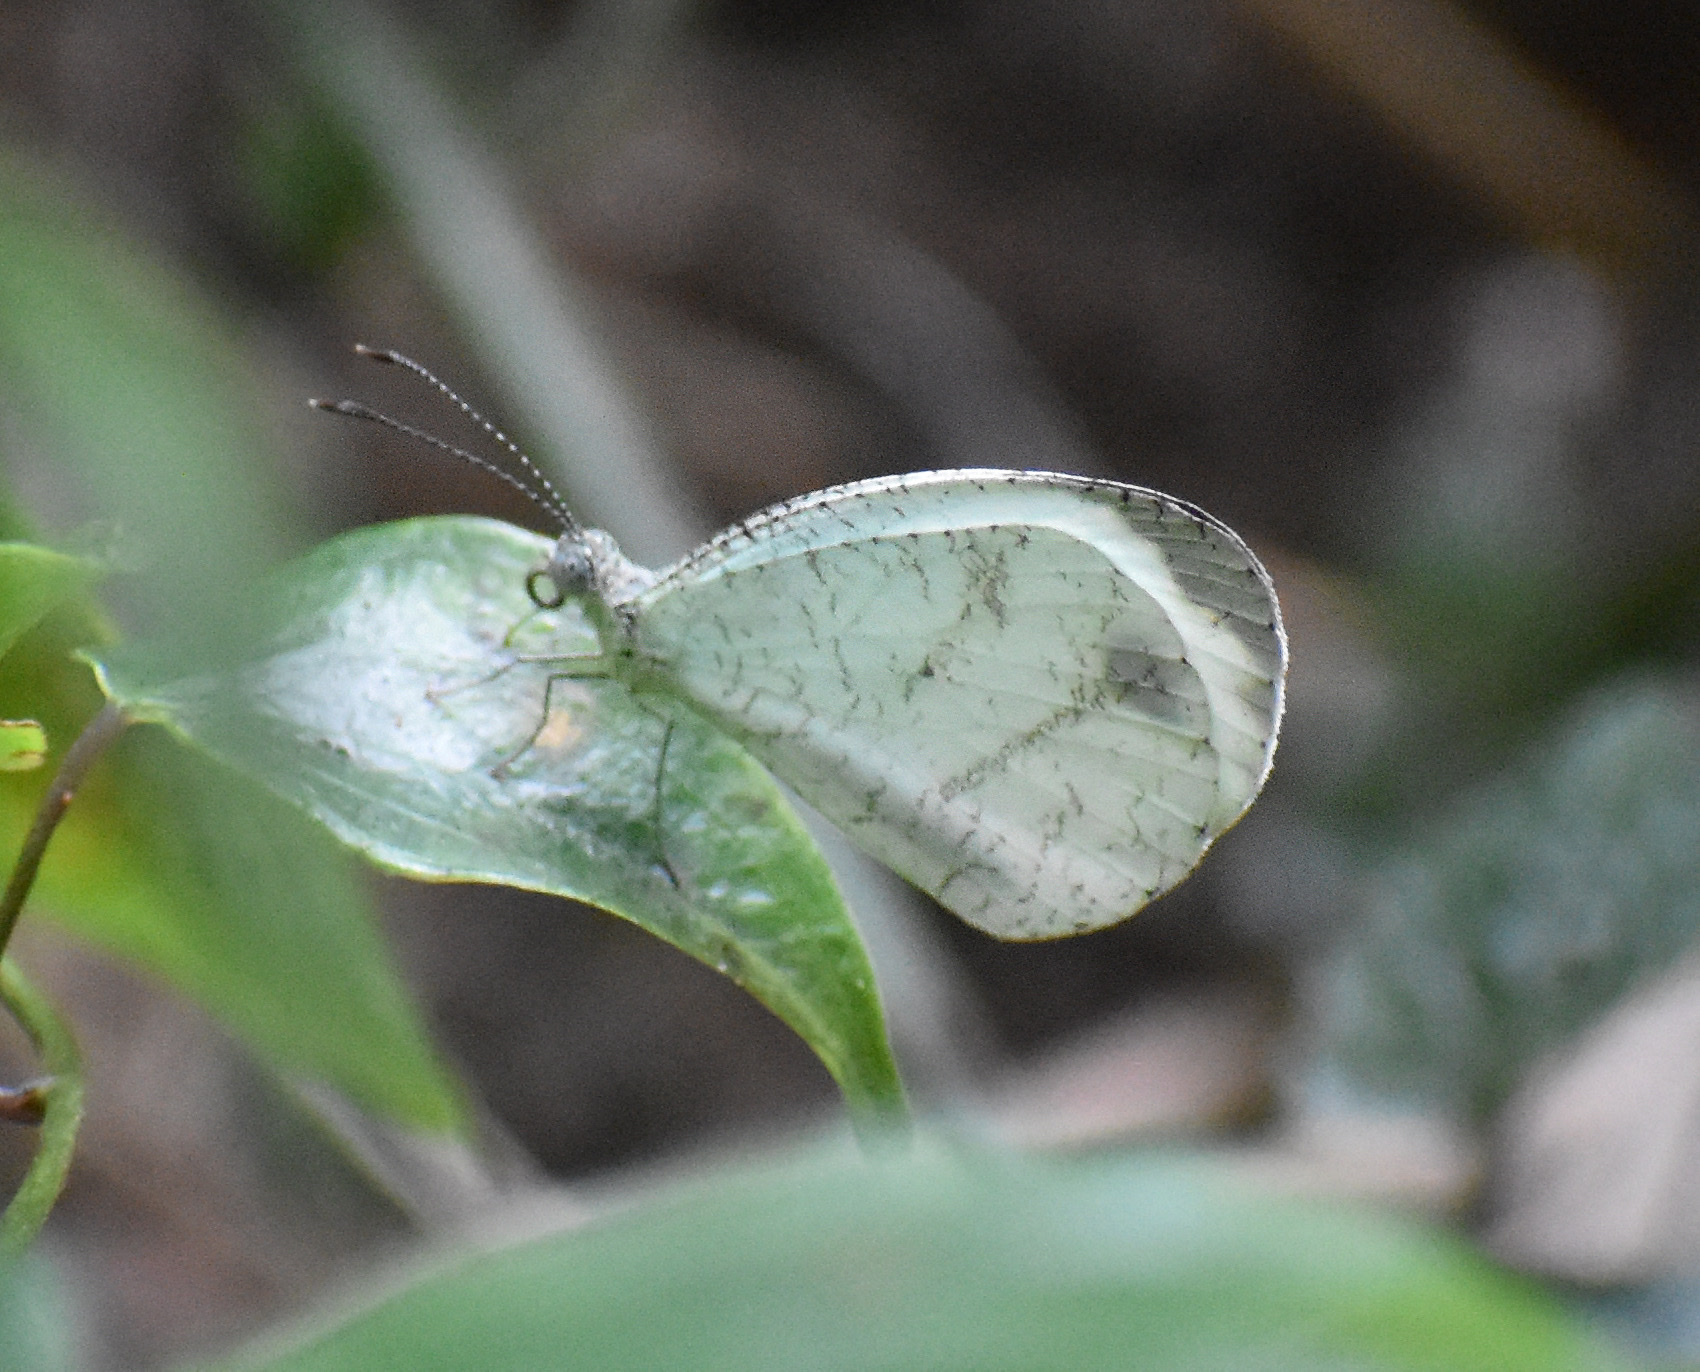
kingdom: Animalia
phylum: Arthropoda
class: Insecta
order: Lepidoptera
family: Pieridae
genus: Leptosia
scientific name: Leptosia alcesta
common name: African wood white
